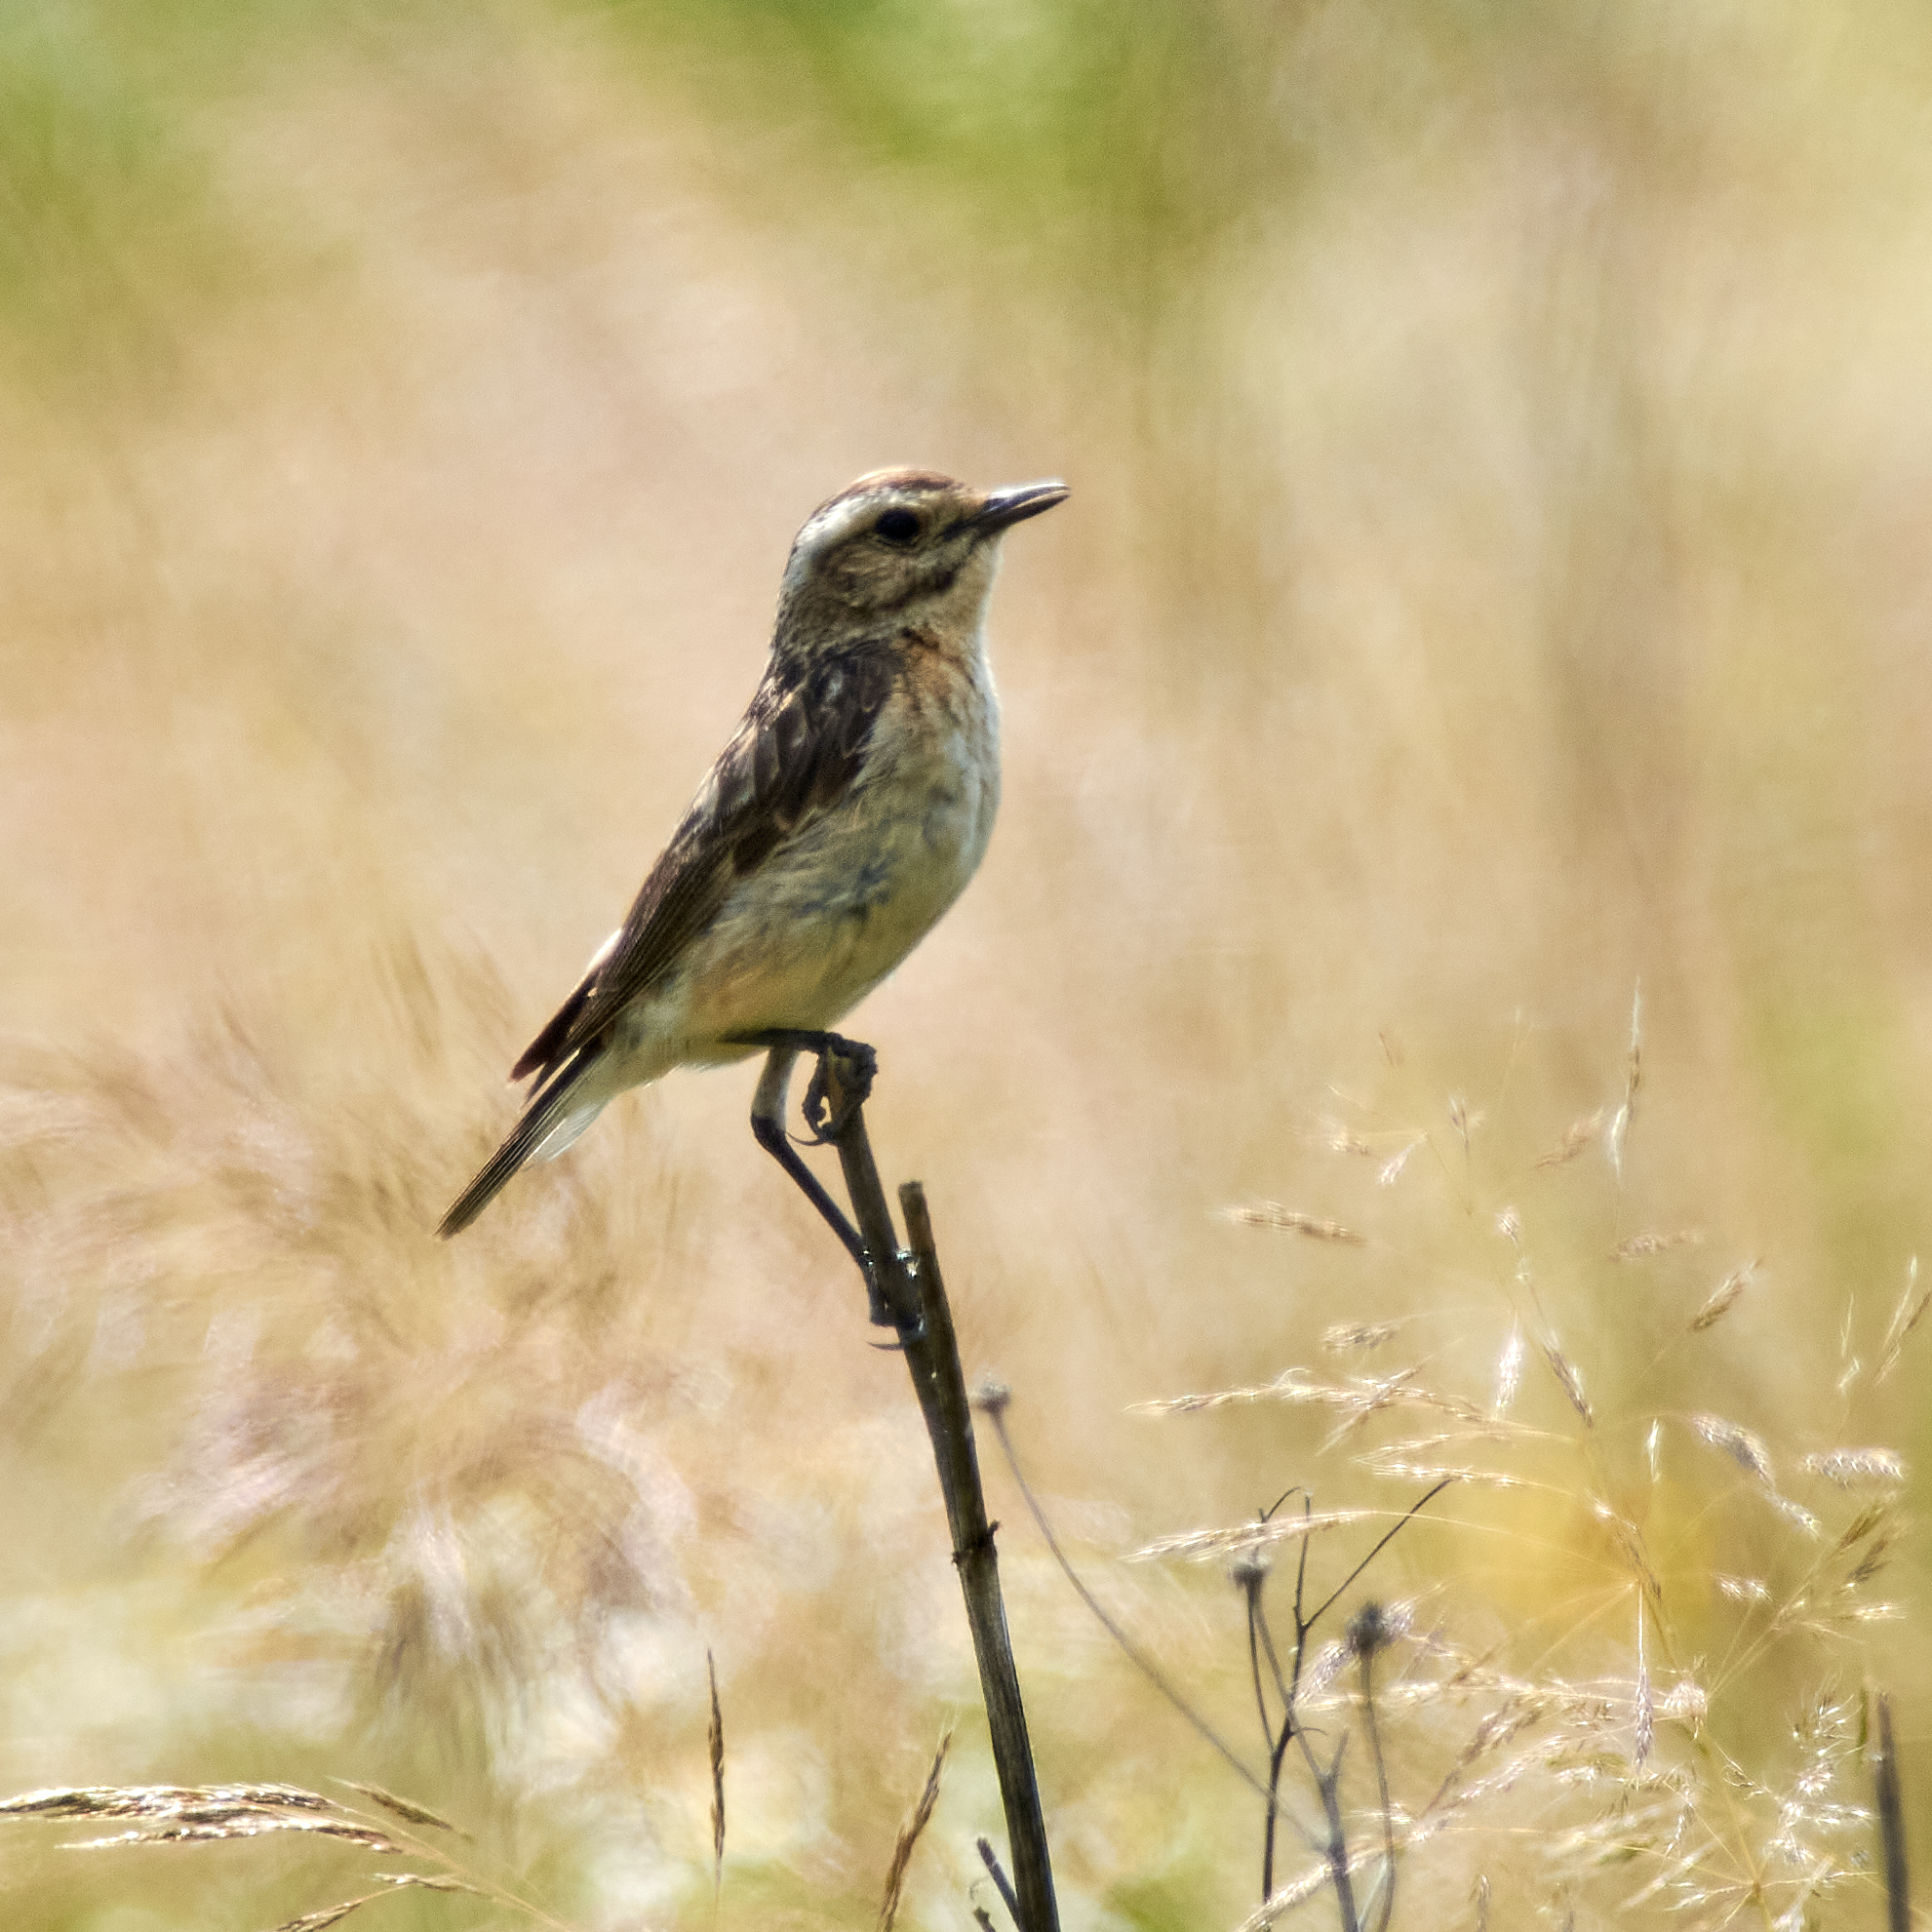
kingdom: Animalia
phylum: Chordata
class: Aves
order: Passeriformes
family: Muscicapidae
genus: Saxicola
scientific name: Saxicola rubetra
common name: Whinchat
